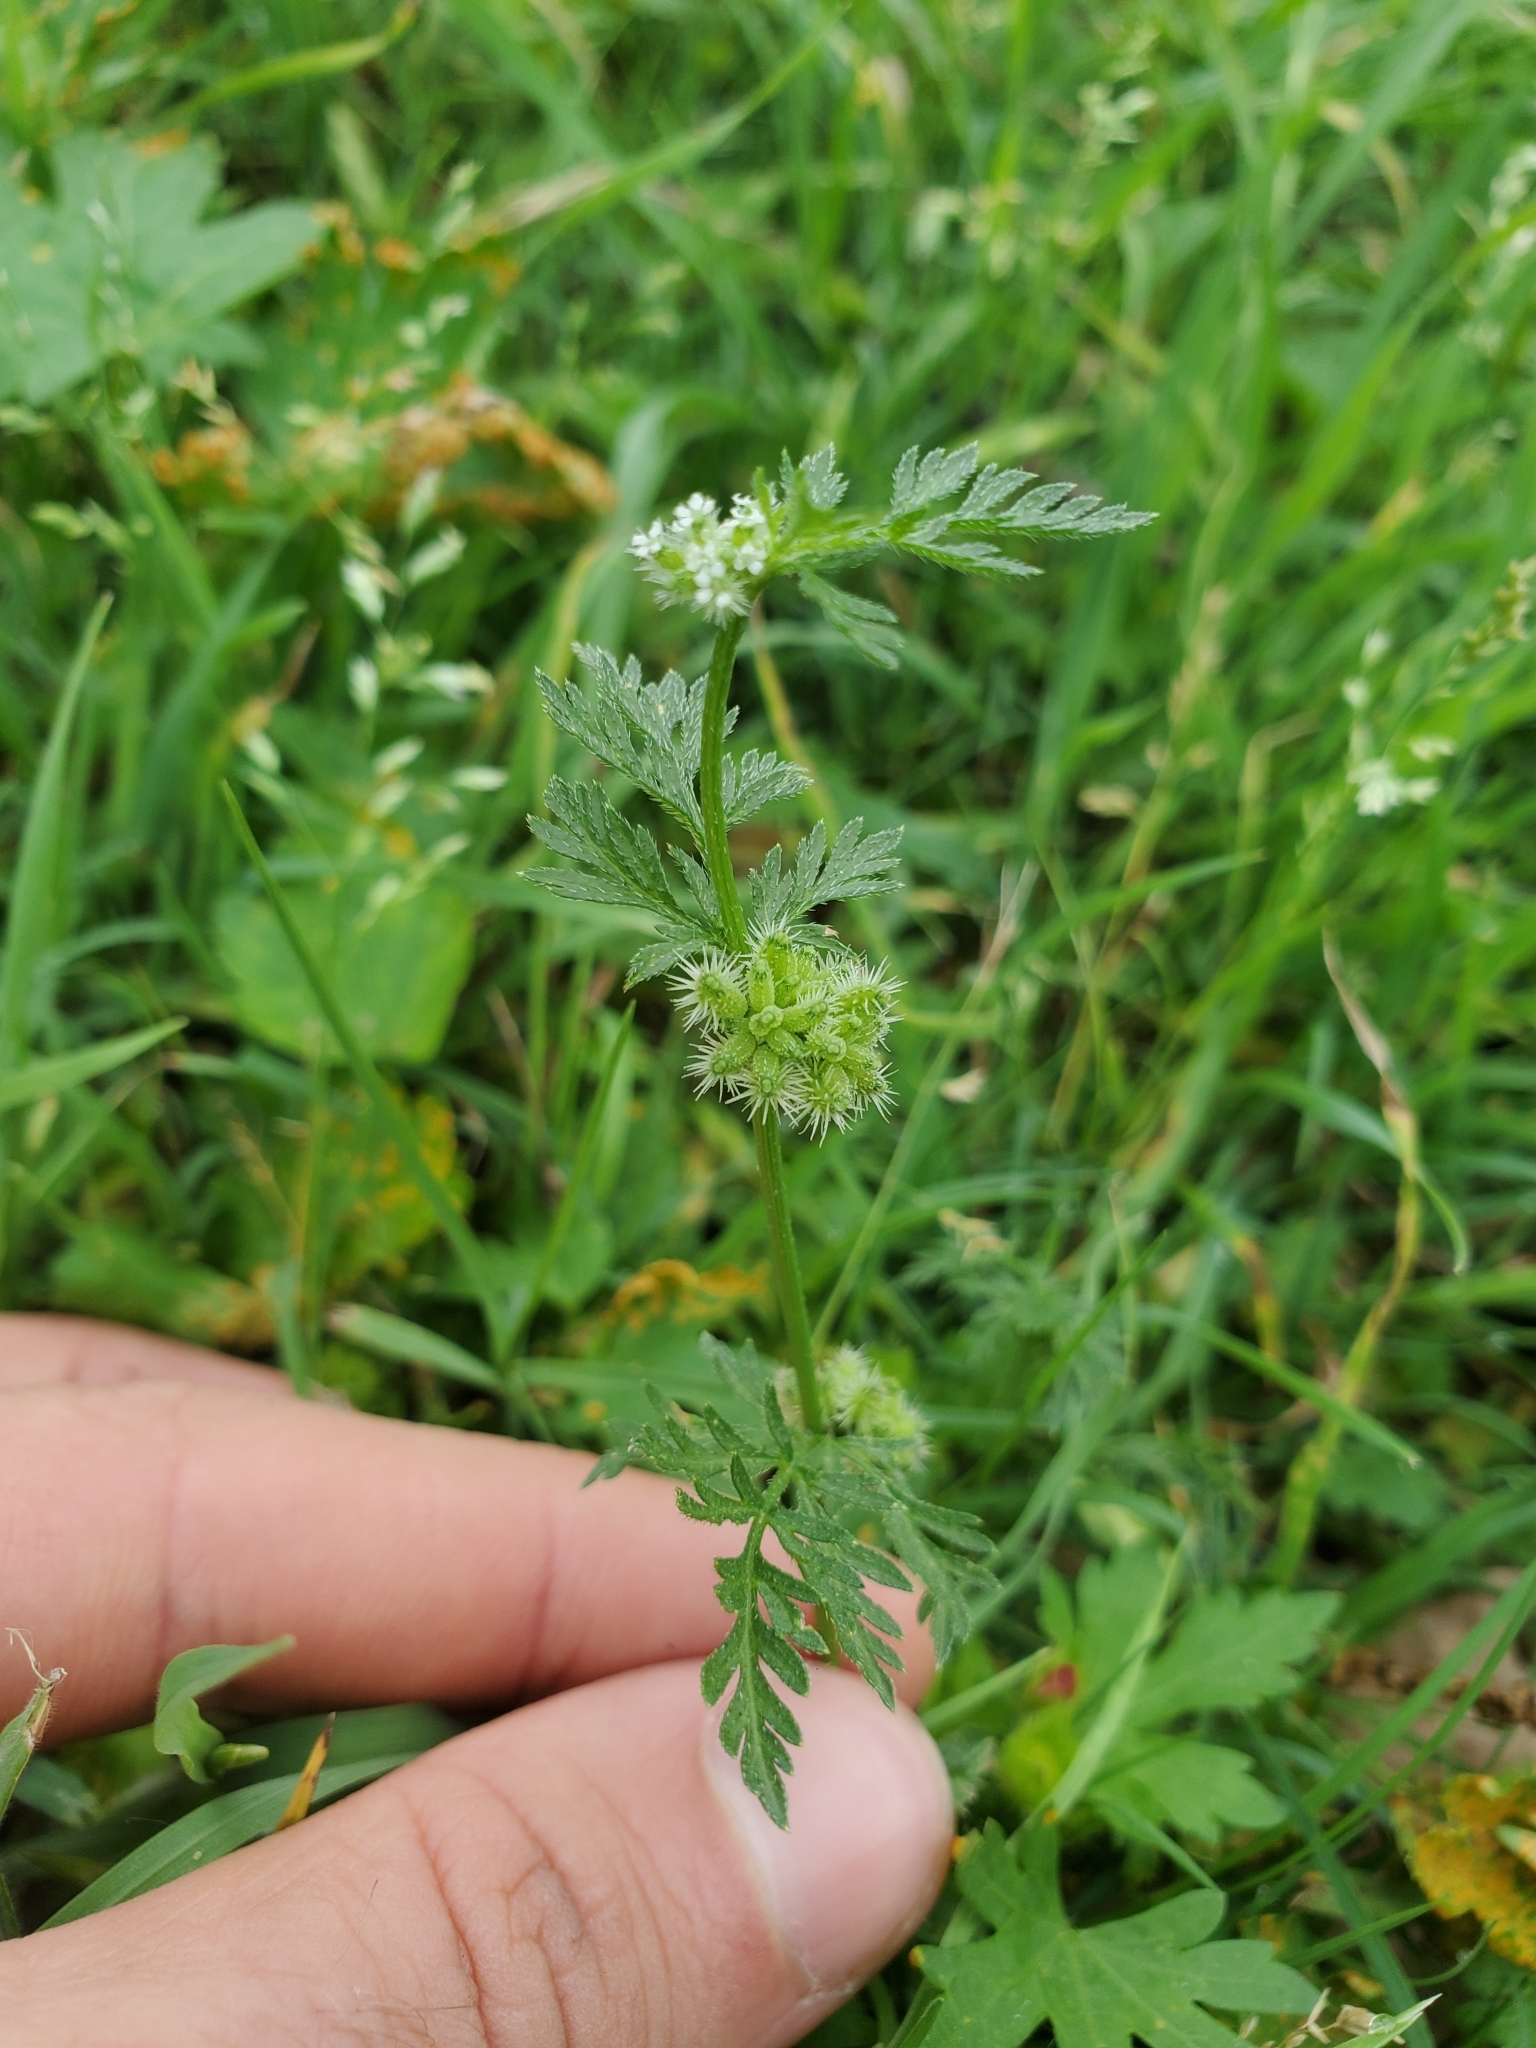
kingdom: Plantae
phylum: Tracheophyta
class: Magnoliopsida
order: Apiales
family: Apiaceae
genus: Torilis
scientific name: Torilis nodosa
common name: Knotted hedge-parsley
